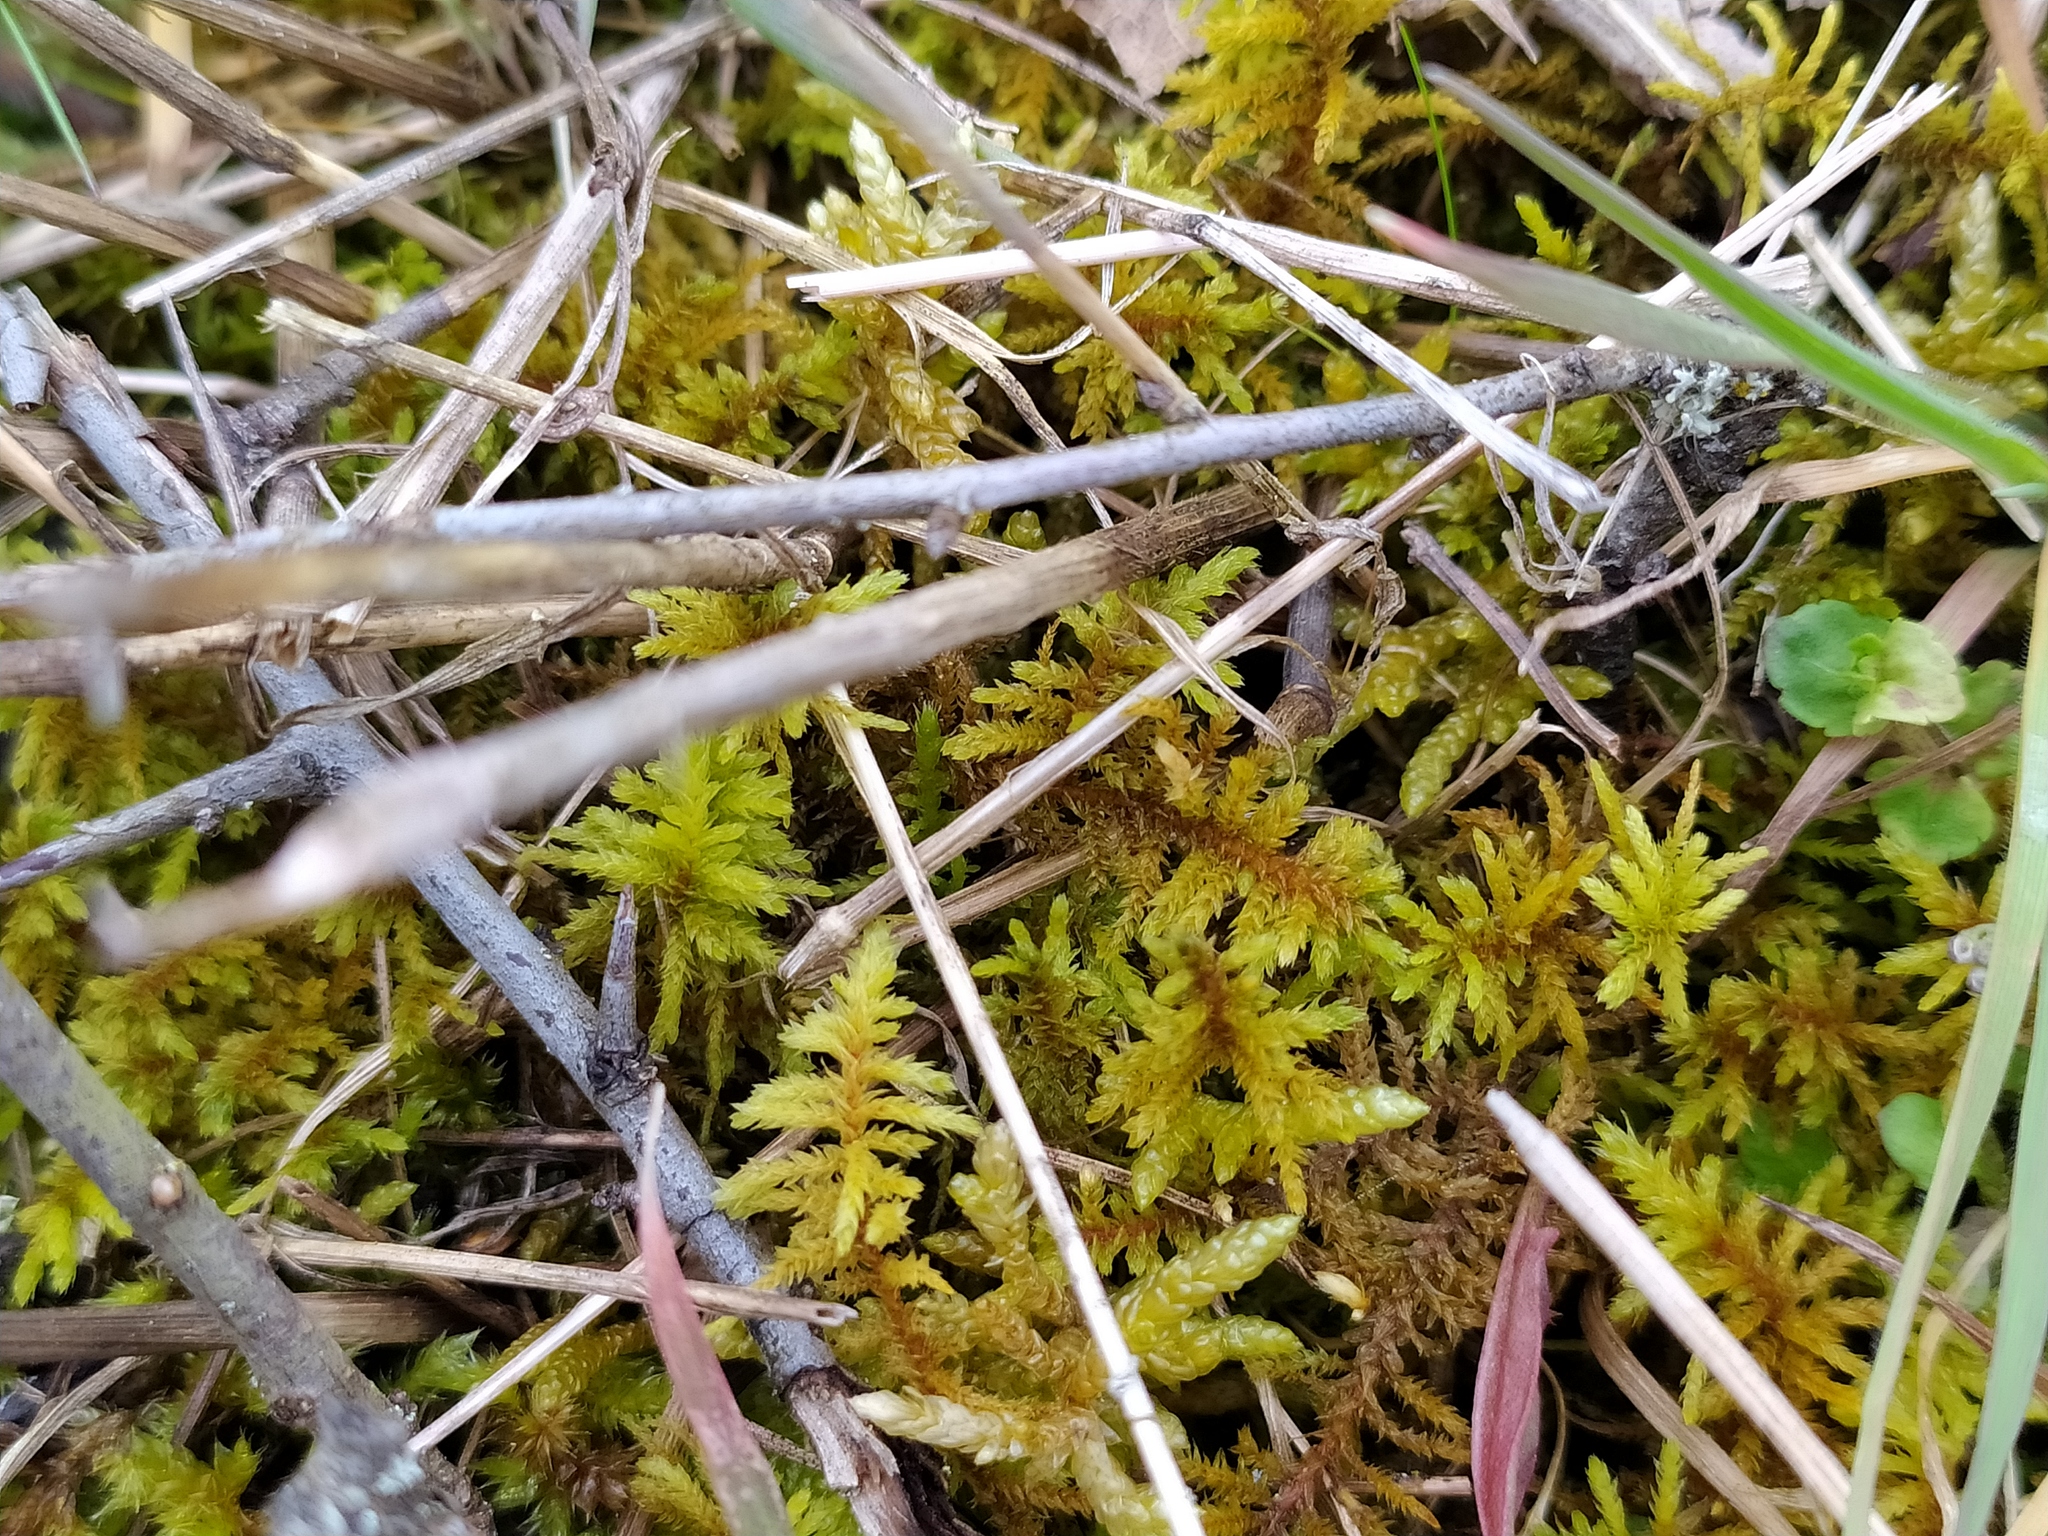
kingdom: Plantae
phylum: Bryophyta
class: Bryopsida
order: Hypnales
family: Thuidiaceae
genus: Abietinella
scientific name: Abietinella abietina
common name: Wiry fern moss
